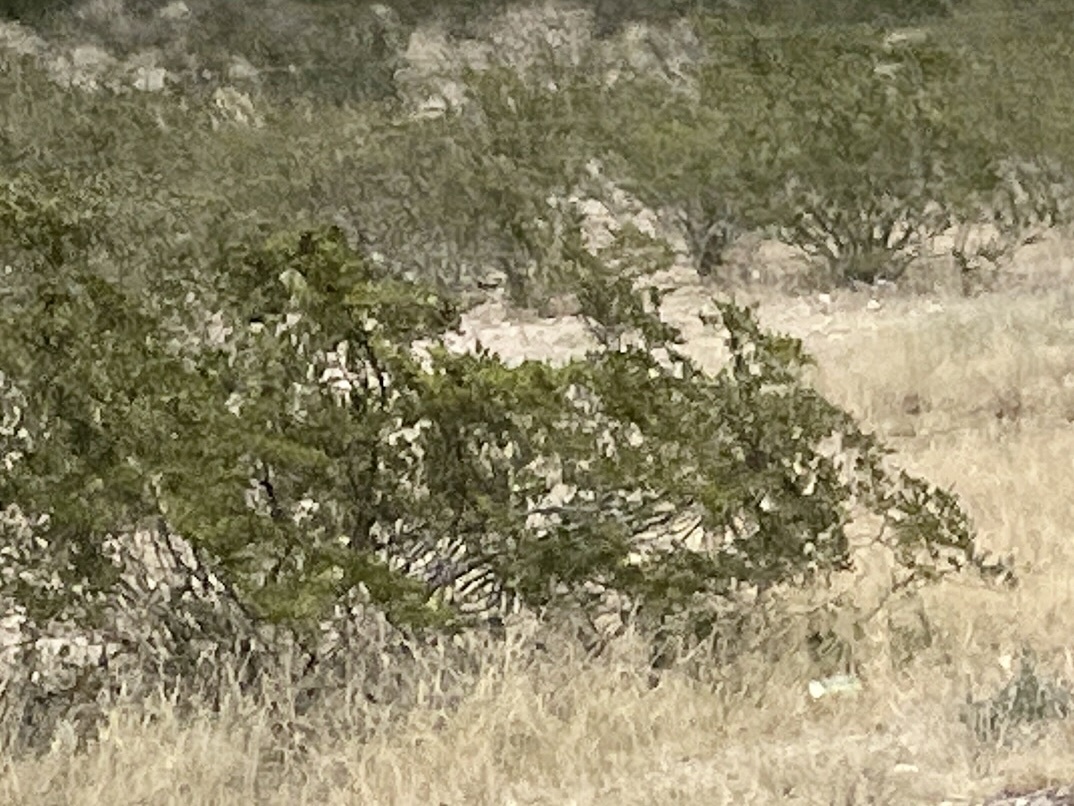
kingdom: Plantae
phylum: Tracheophyta
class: Magnoliopsida
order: Zygophyllales
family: Zygophyllaceae
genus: Larrea
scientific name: Larrea tridentata
